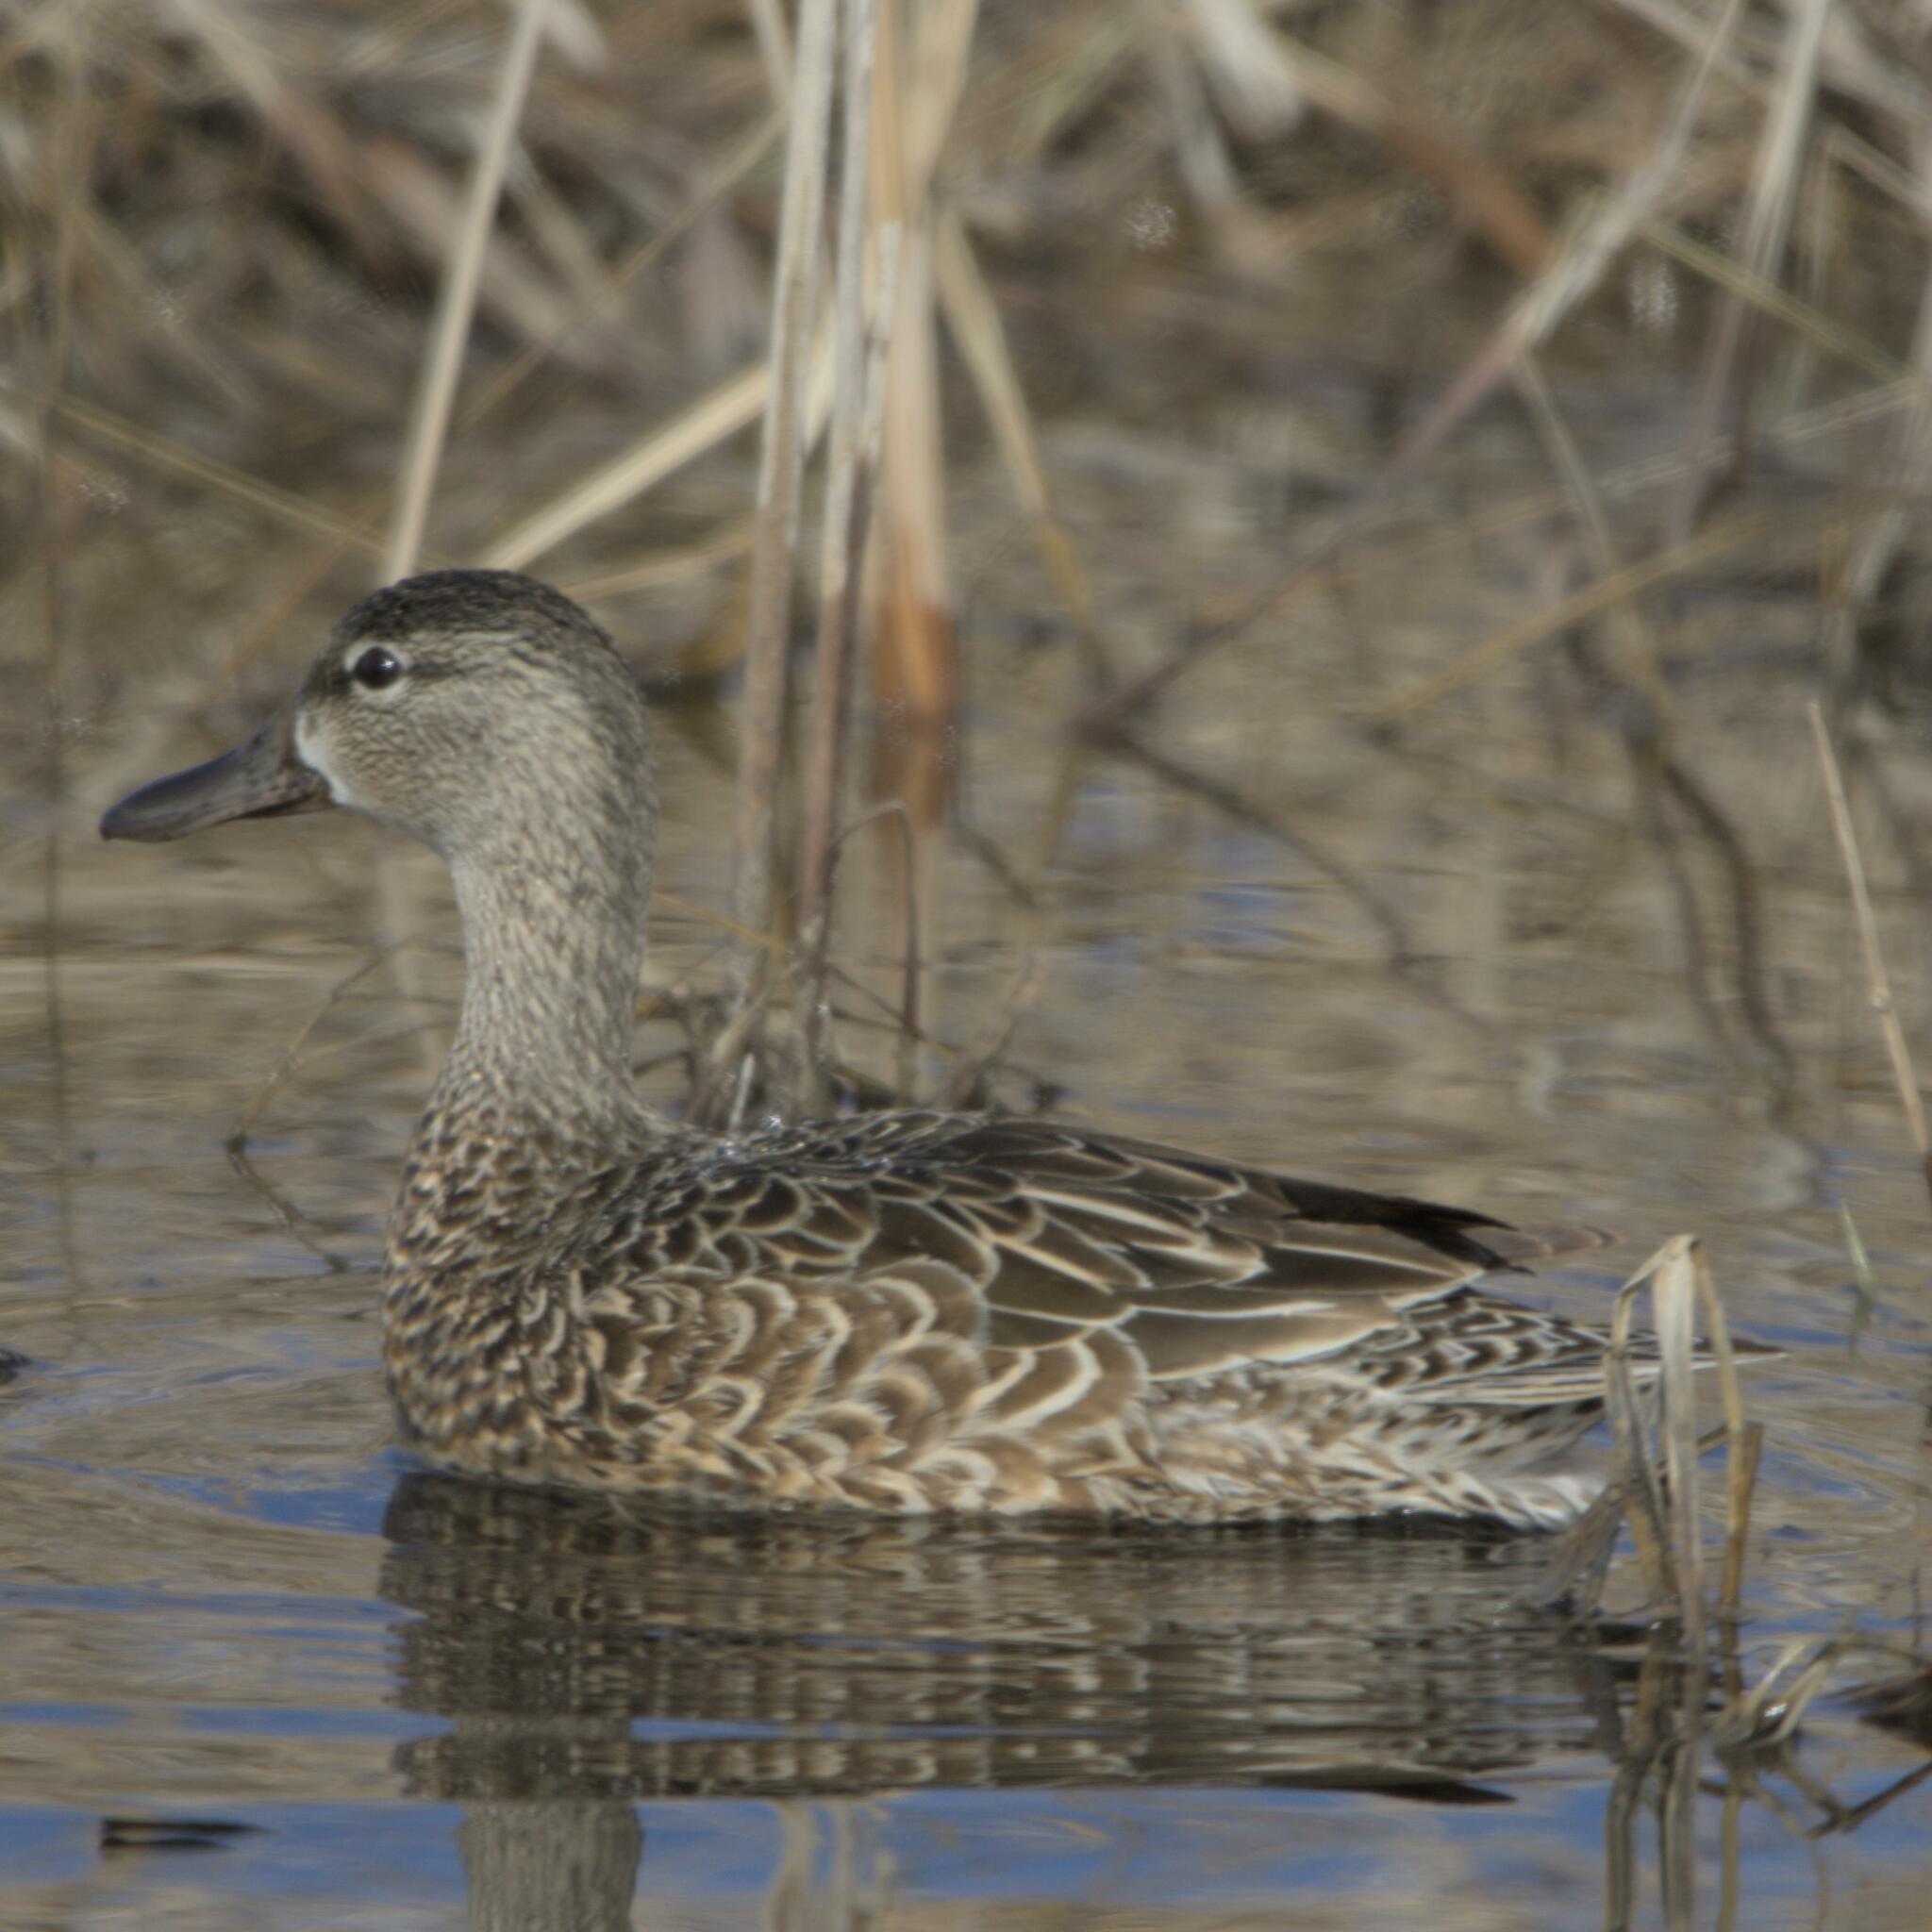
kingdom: Animalia
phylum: Chordata
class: Aves
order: Anseriformes
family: Anatidae
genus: Spatula
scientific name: Spatula discors
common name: Blue-winged teal
